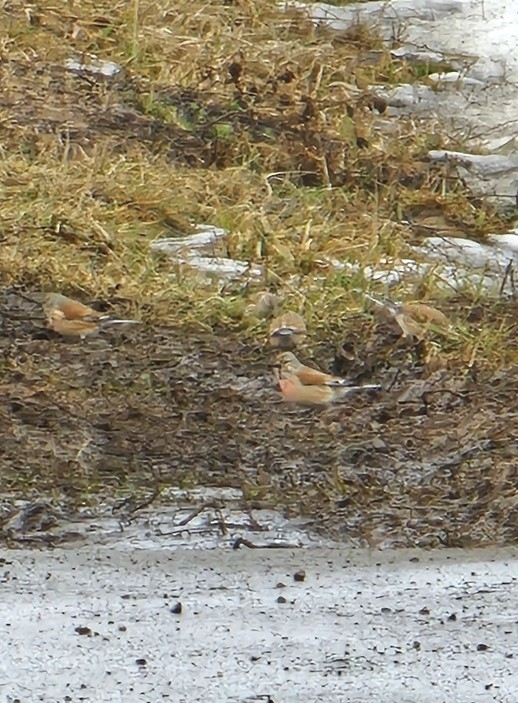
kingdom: Animalia
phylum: Chordata
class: Aves
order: Passeriformes
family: Fringillidae
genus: Linaria
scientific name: Linaria cannabina
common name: Common linnet
